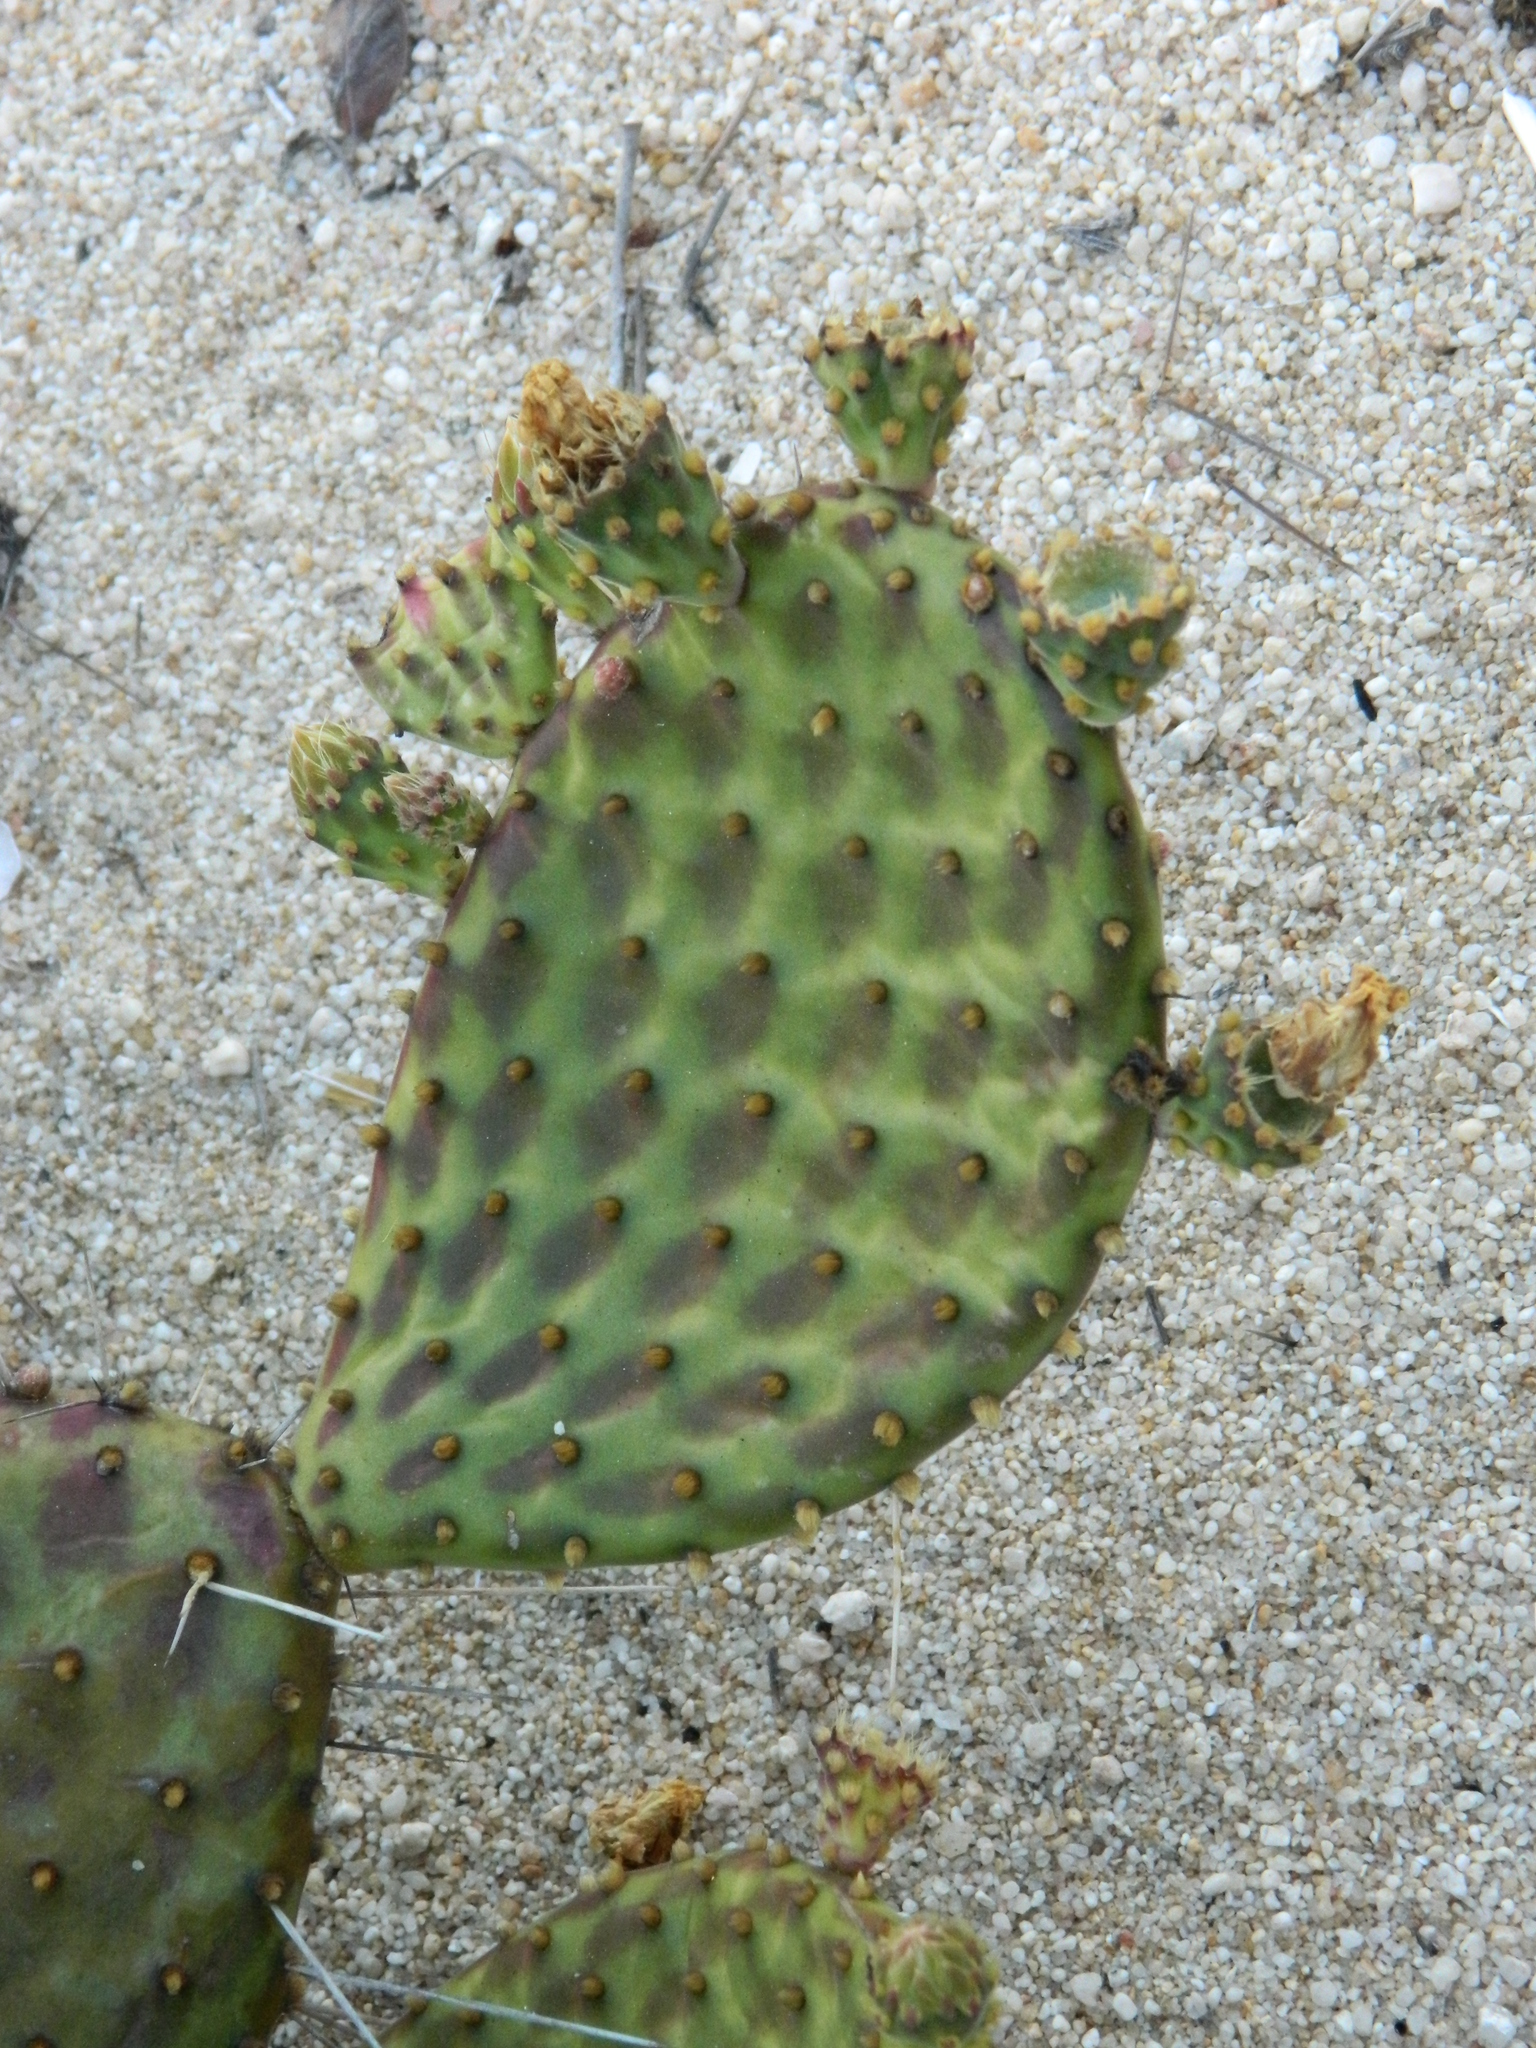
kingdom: Plantae
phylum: Tracheophyta
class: Magnoliopsida
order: Caryophyllales
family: Cactaceae
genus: Opuntia
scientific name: Opuntia decumbens
